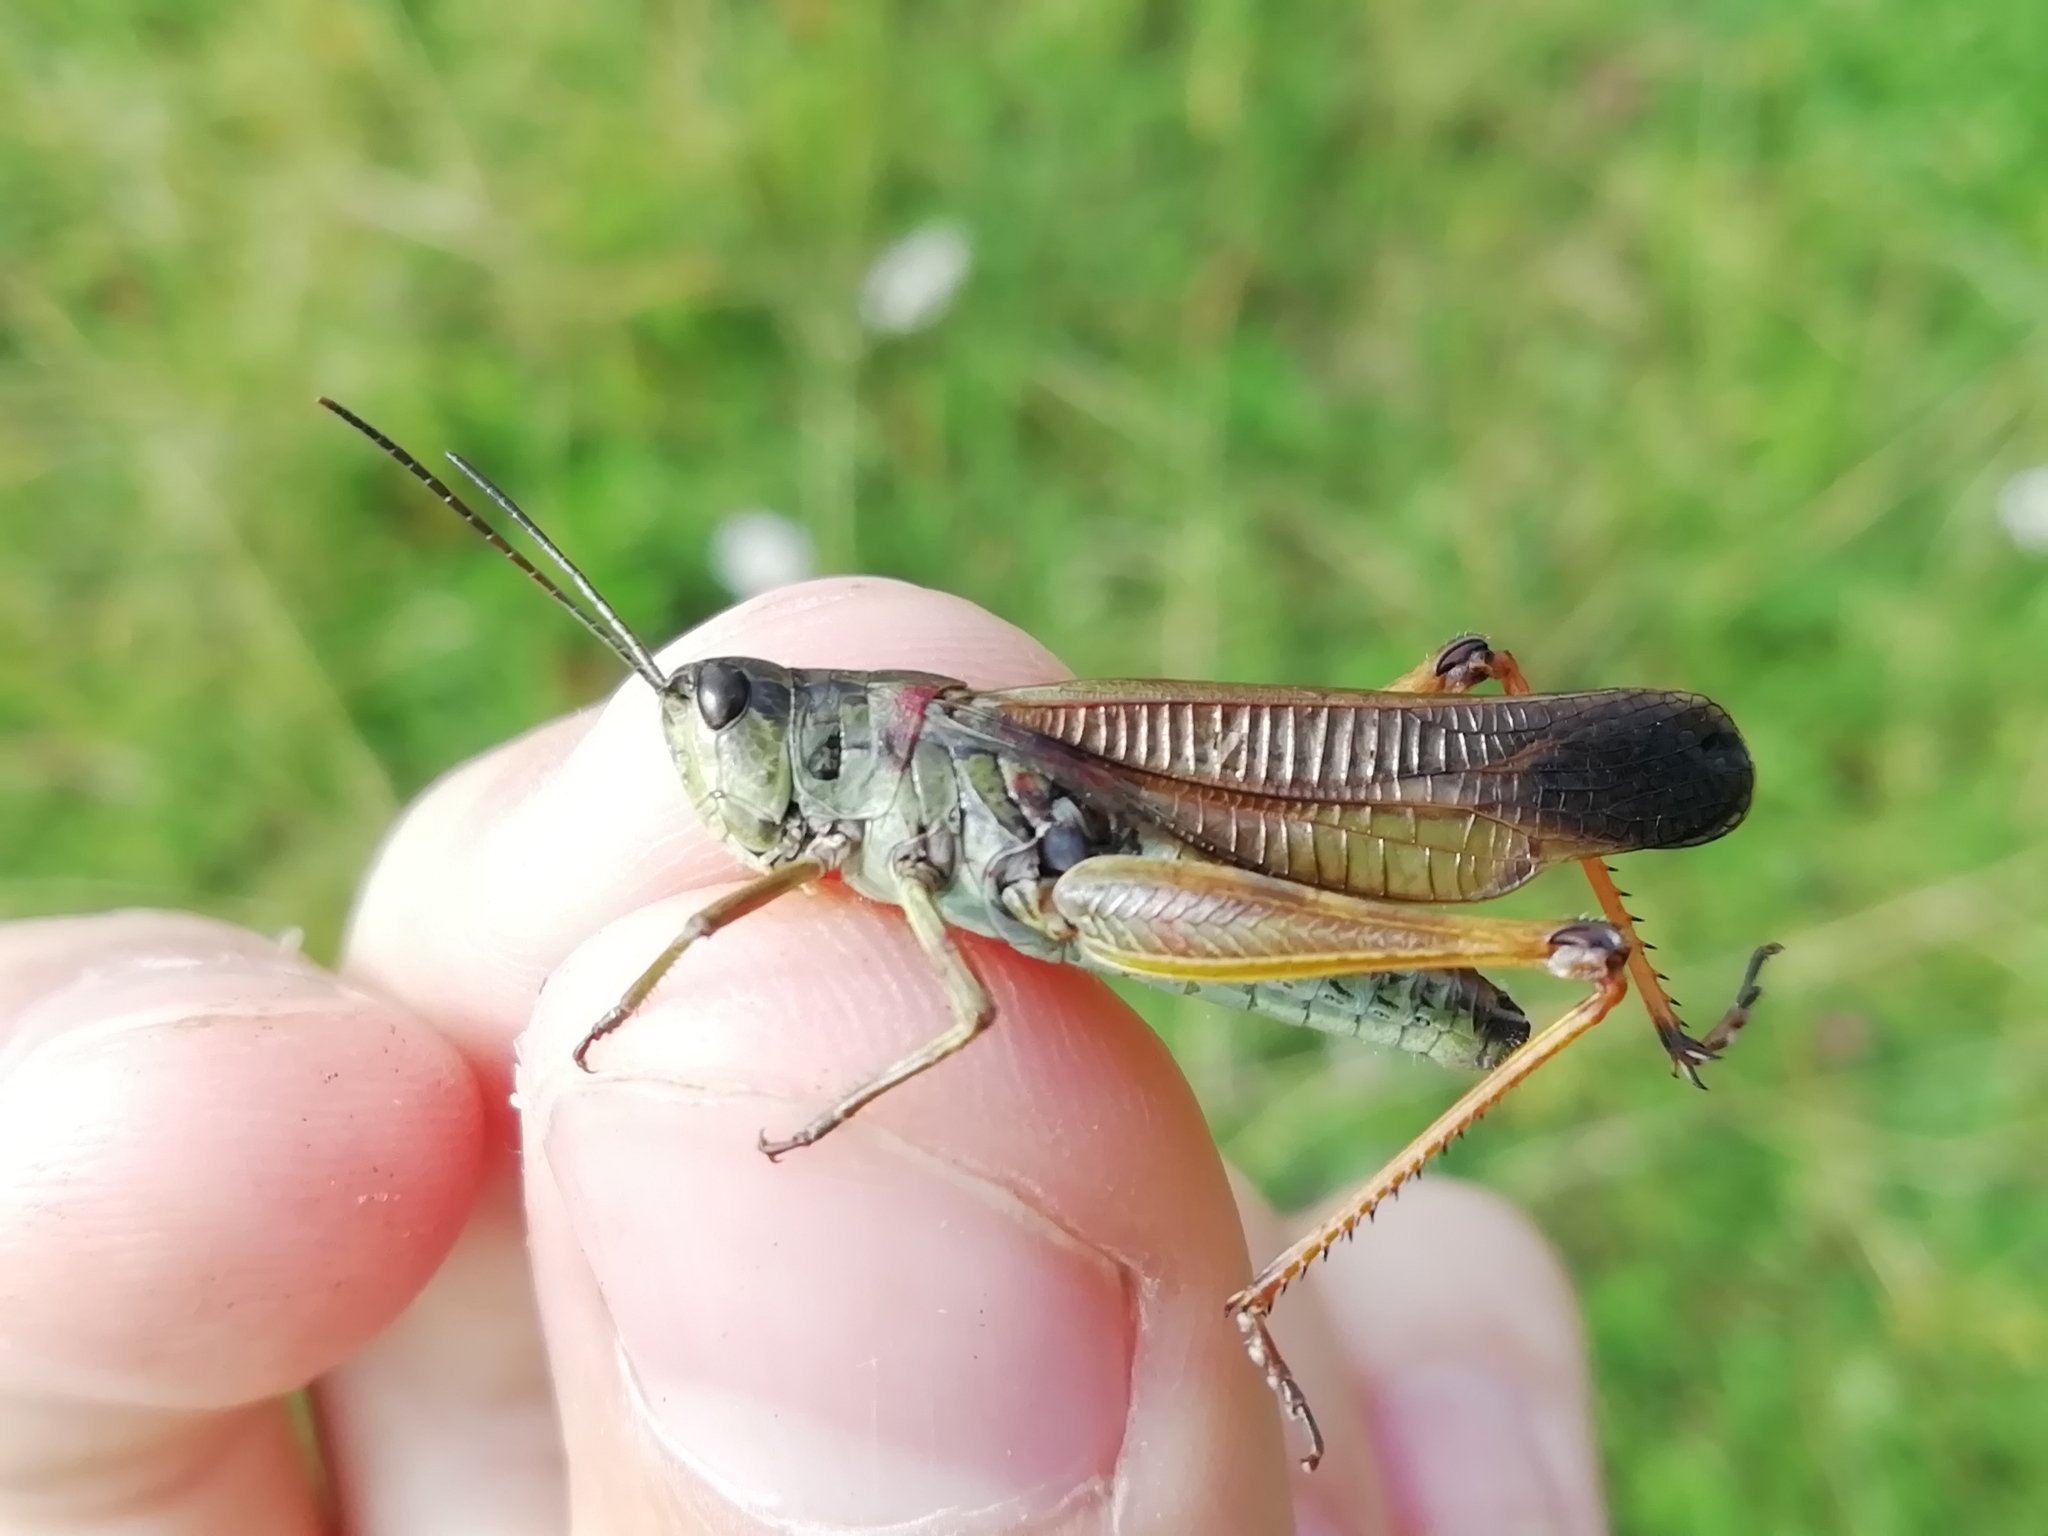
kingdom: Animalia
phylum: Arthropoda
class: Insecta
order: Orthoptera
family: Acrididae
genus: Stauroderus
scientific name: Stauroderus scalaris
